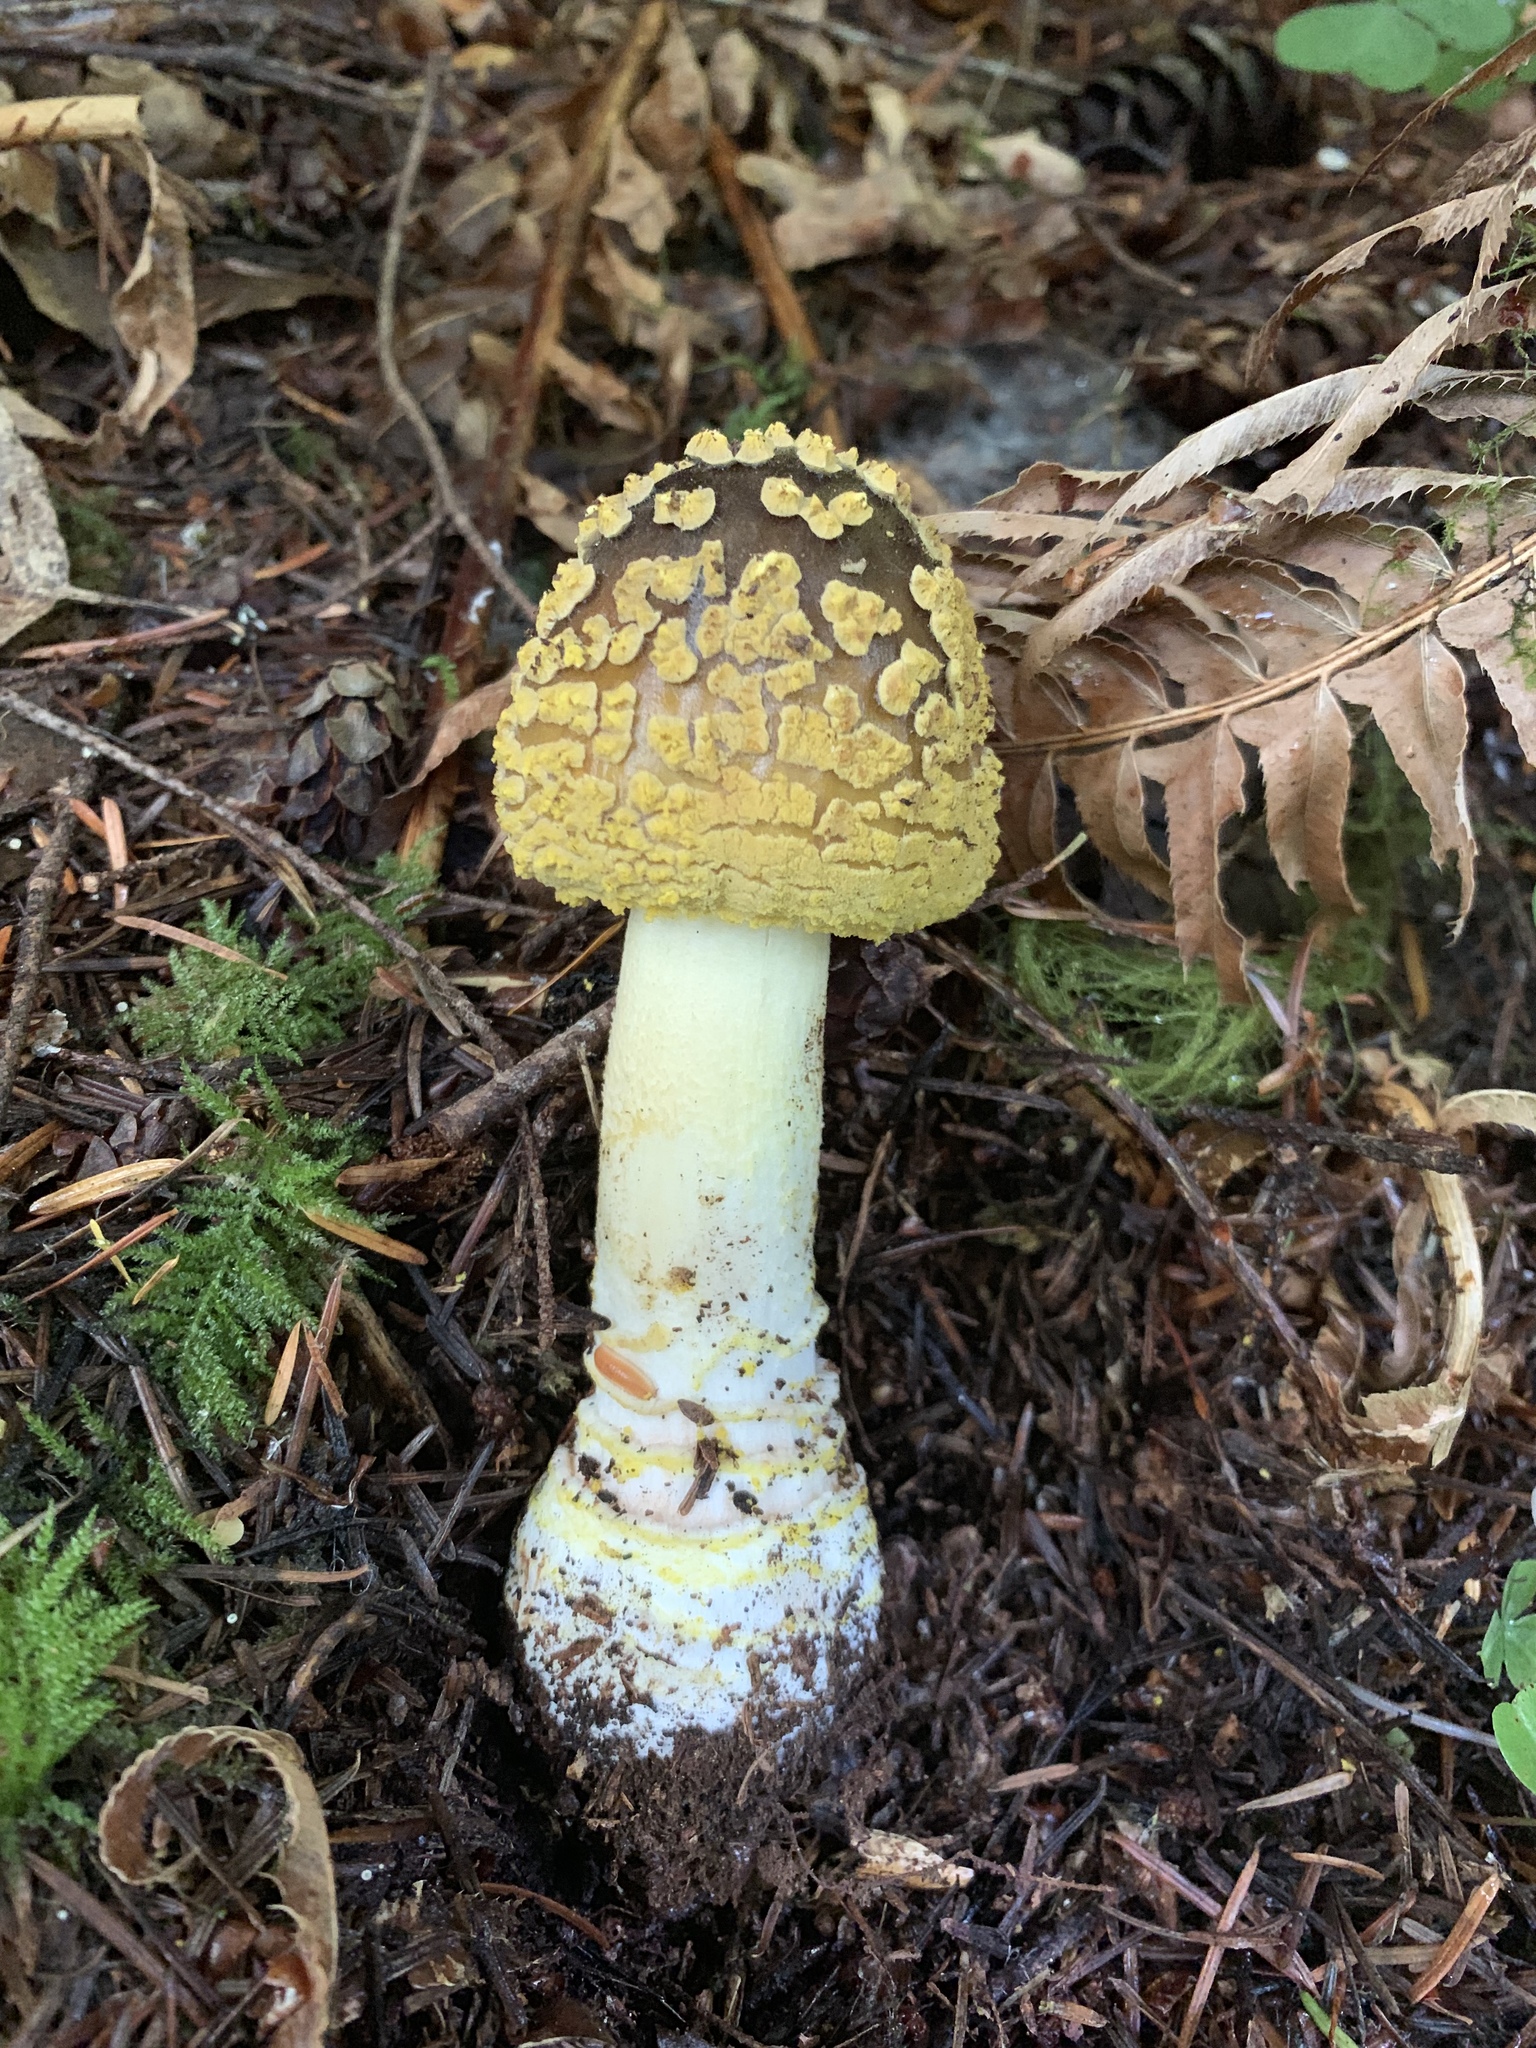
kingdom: Fungi
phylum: Basidiomycota
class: Agaricomycetes
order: Agaricales
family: Amanitaceae
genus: Amanita
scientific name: Amanita augusta
